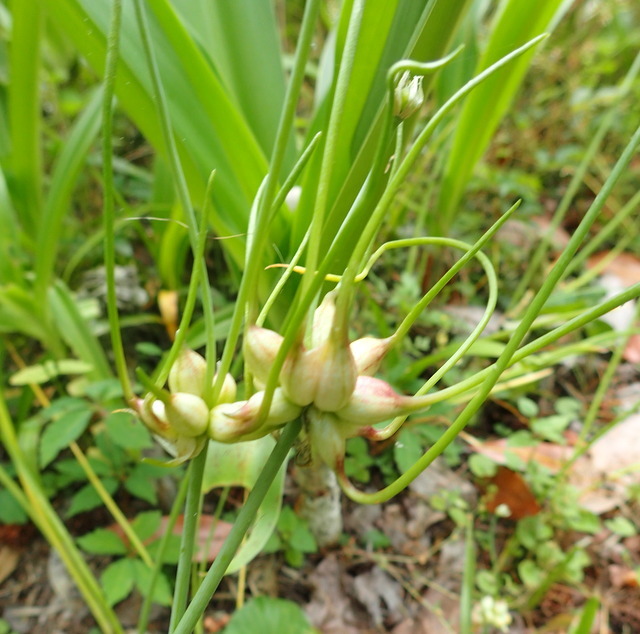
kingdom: Plantae
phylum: Tracheophyta
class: Liliopsida
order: Asparagales
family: Amaryllidaceae
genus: Allium
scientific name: Allium canadense
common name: Meadow garlic
